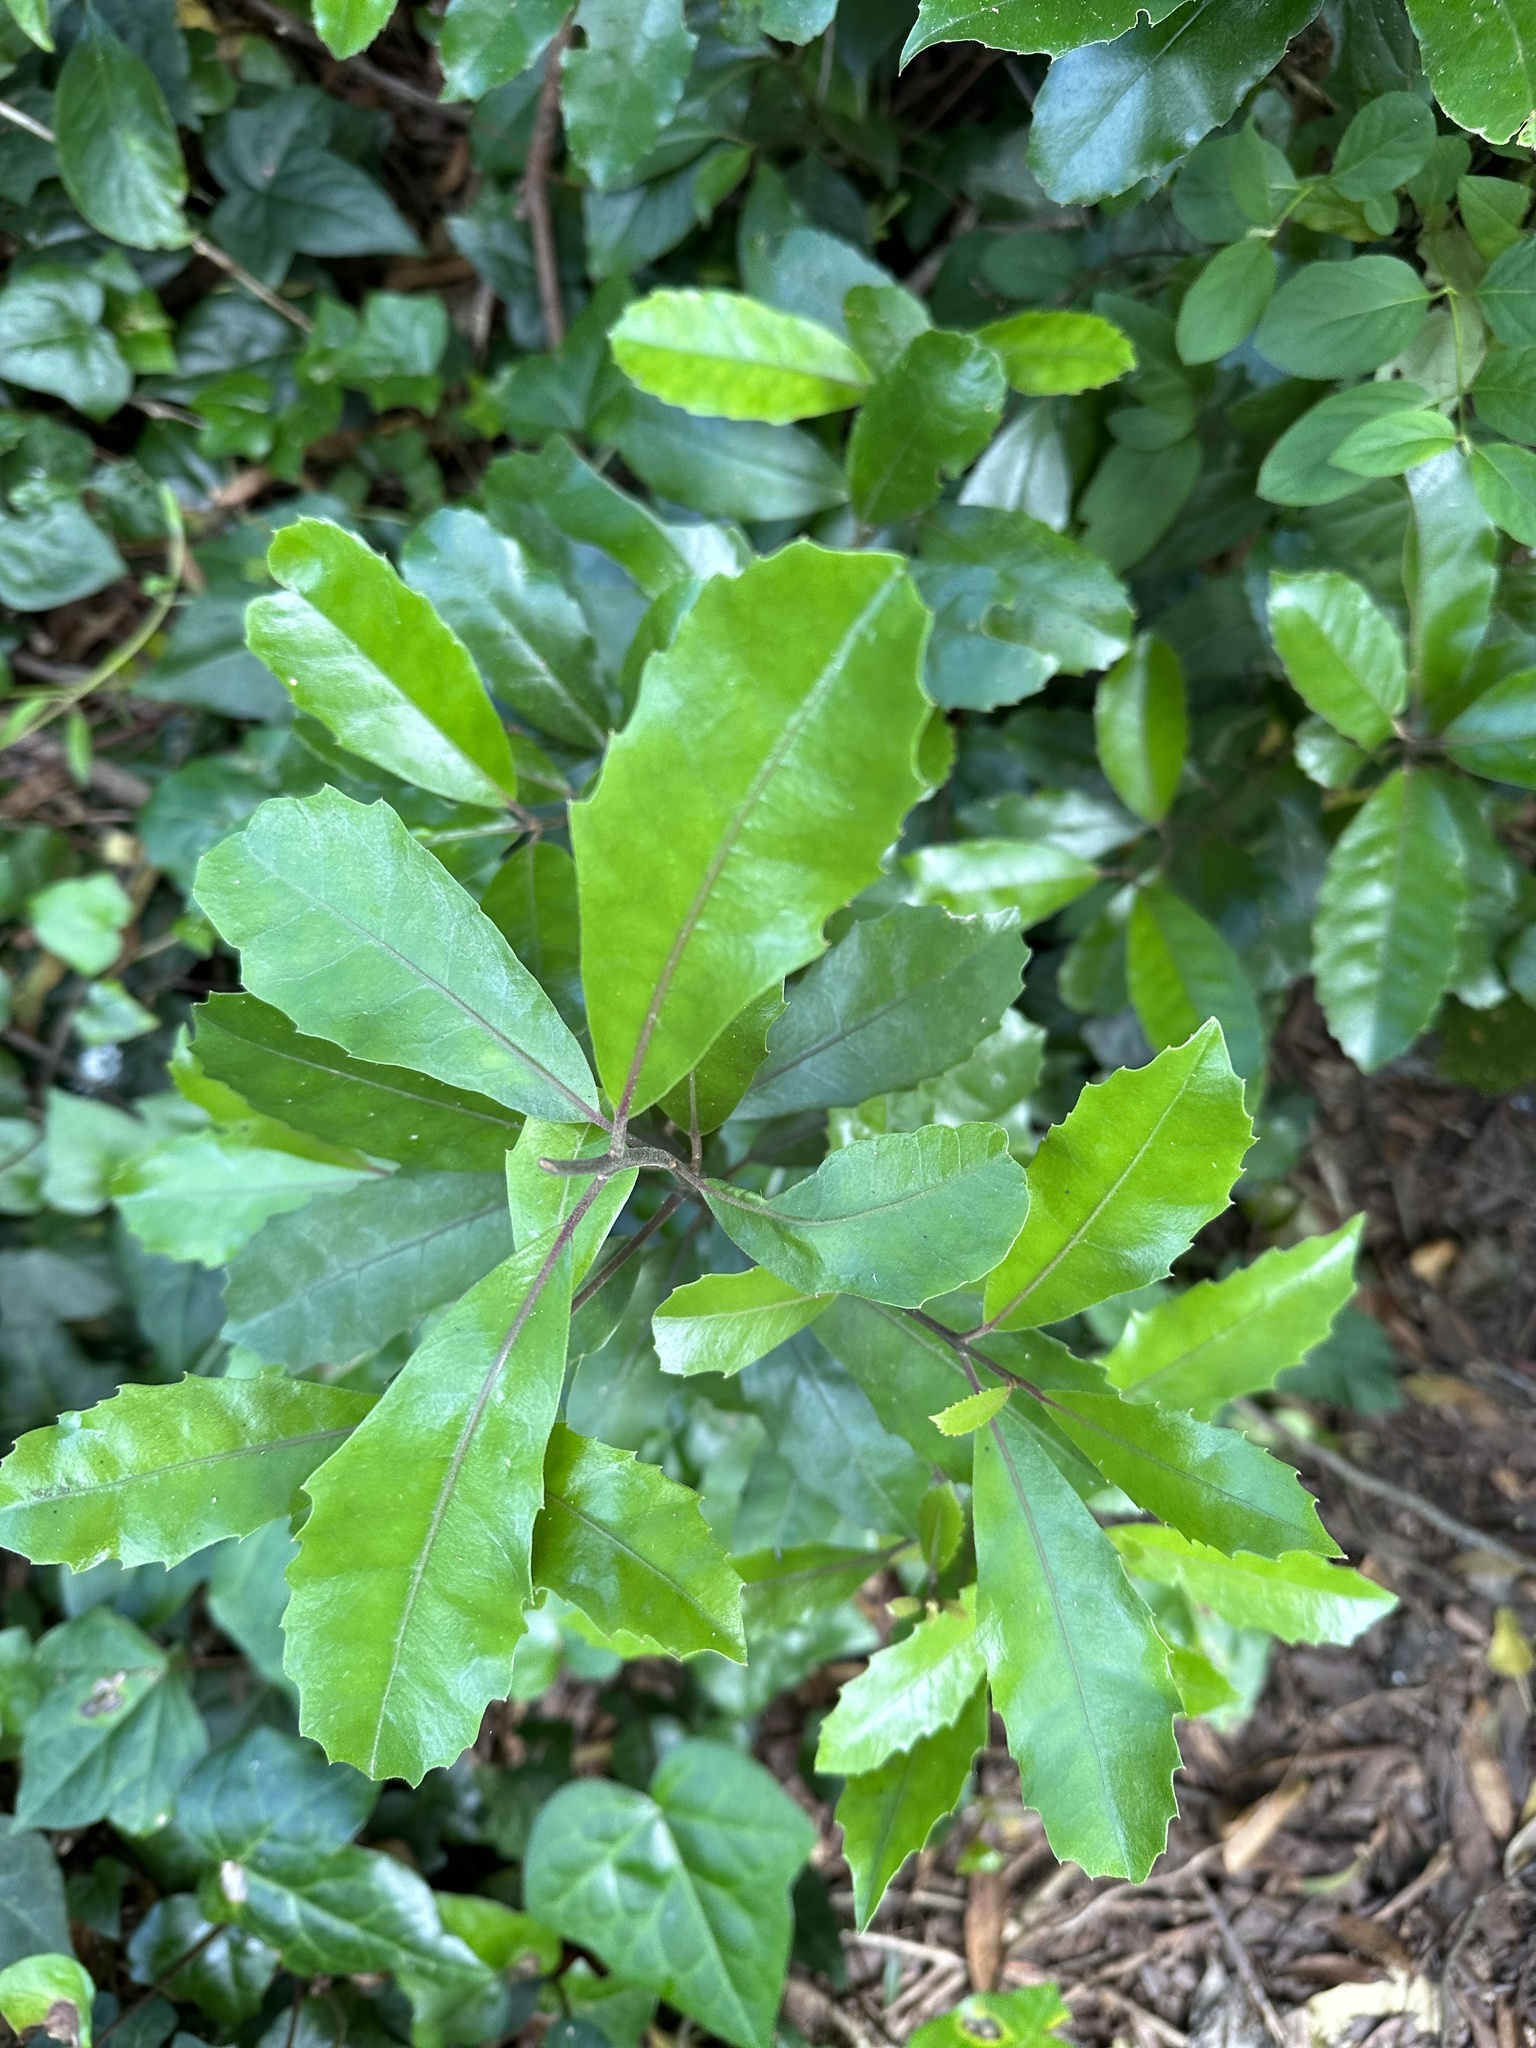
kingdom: Plantae
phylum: Tracheophyta
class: Magnoliopsida
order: Laurales
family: Monimiaceae
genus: Hedycarya
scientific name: Hedycarya arborea
